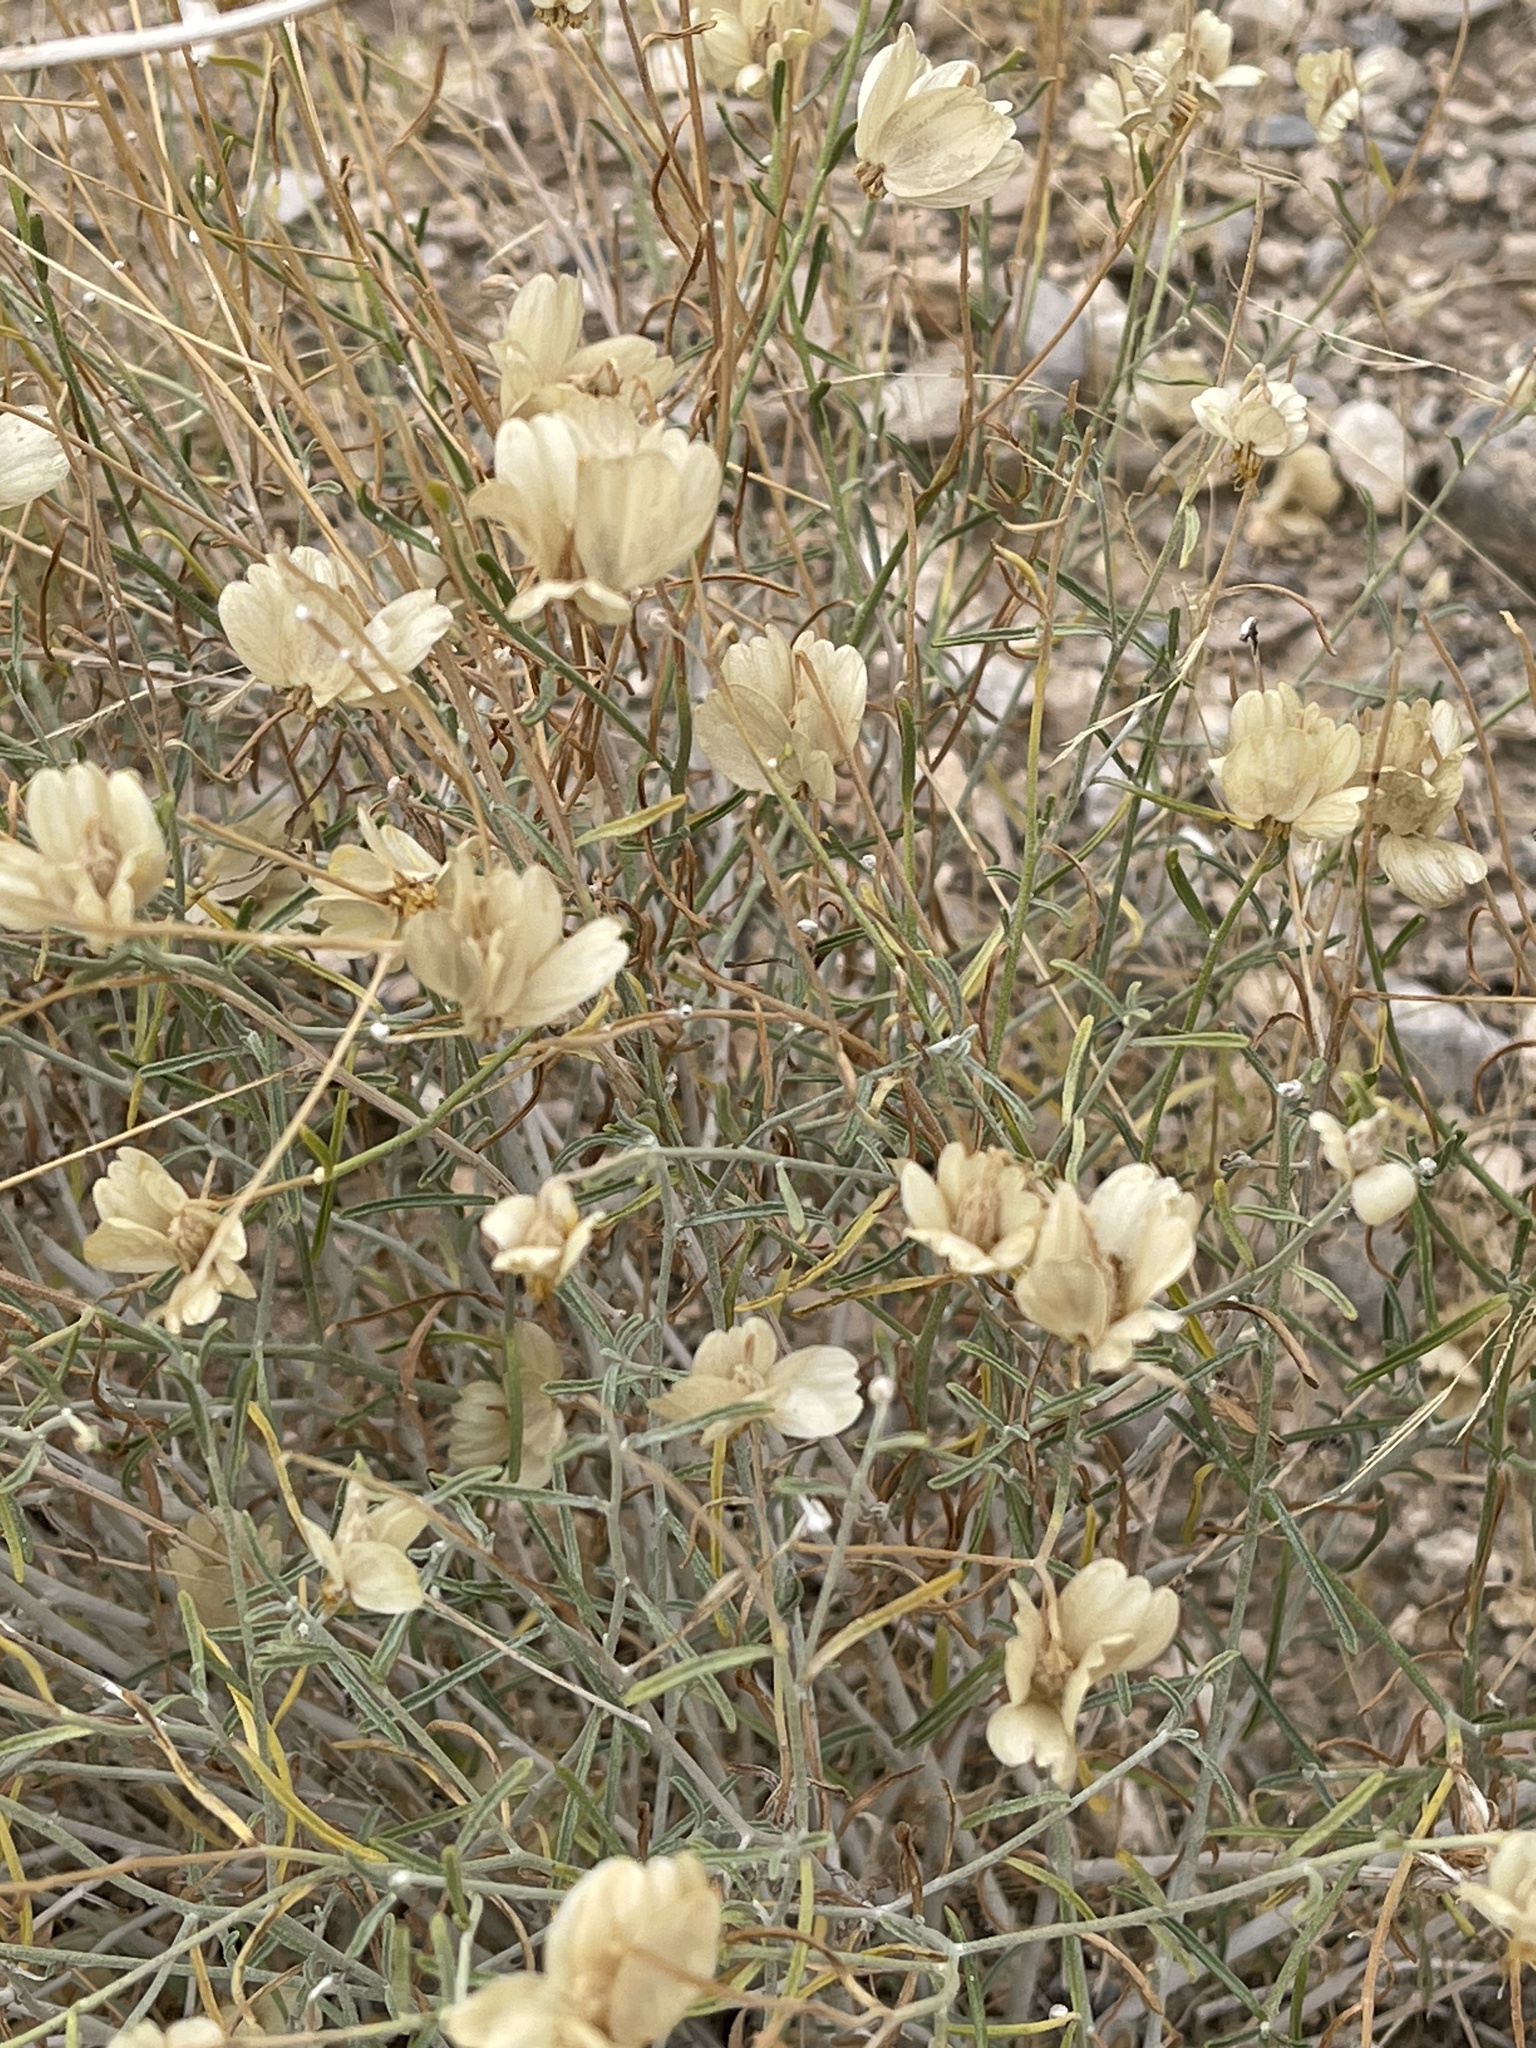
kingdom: Plantae
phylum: Tracheophyta
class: Magnoliopsida
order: Asterales
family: Asteraceae
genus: Psilostrophe
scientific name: Psilostrophe cooperi
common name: White-stem paper-flower
